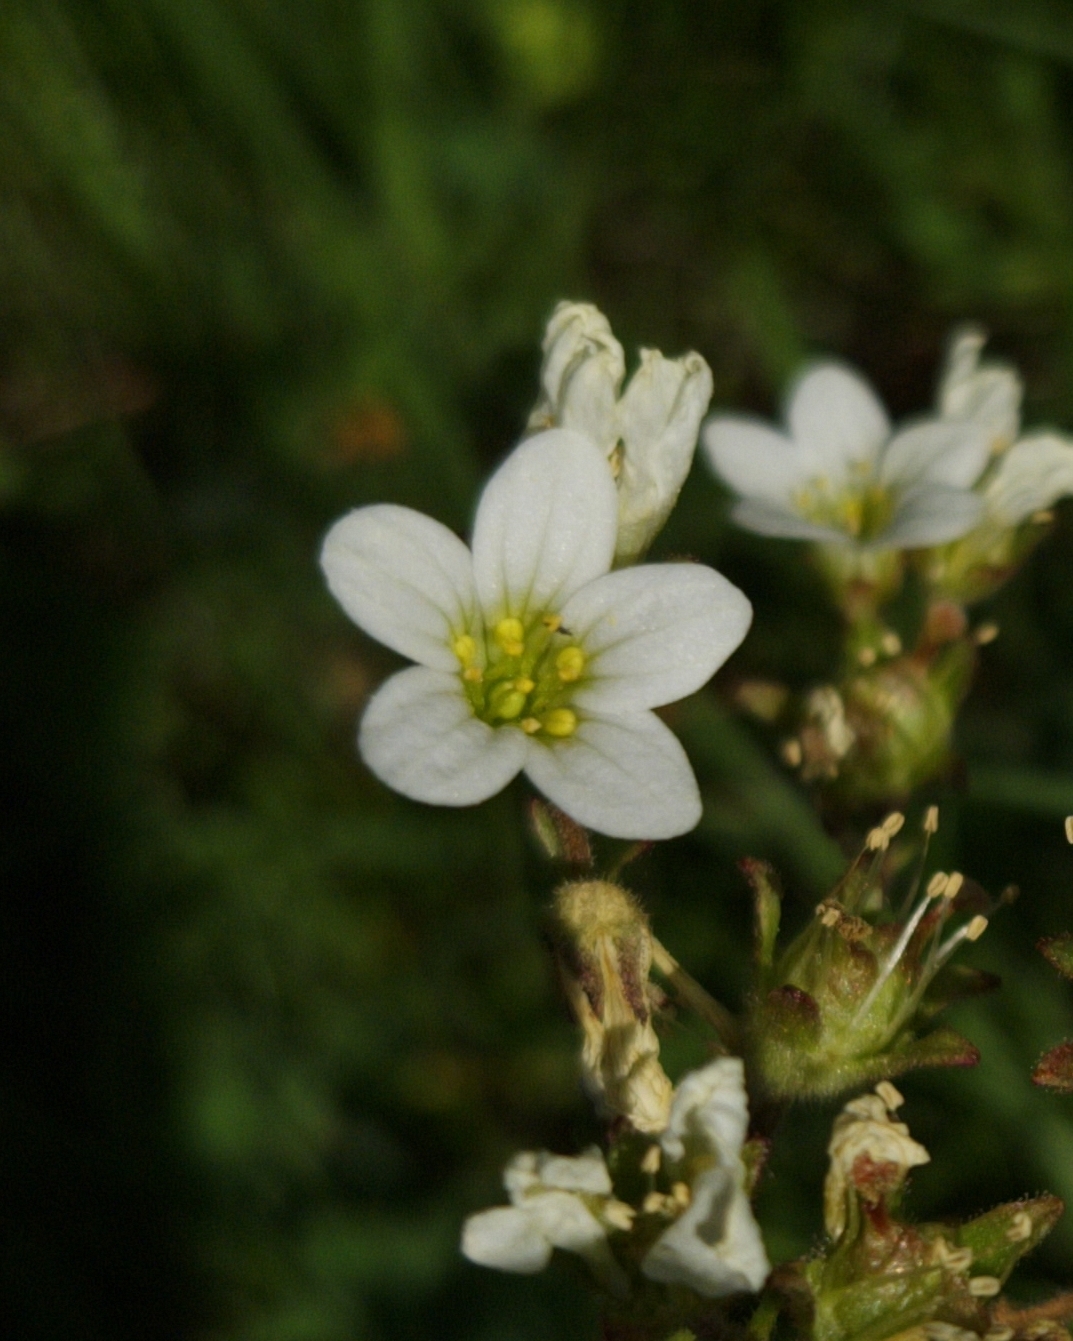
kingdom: Plantae
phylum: Tracheophyta
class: Magnoliopsida
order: Saxifragales
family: Saxifragaceae
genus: Saxifraga
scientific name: Saxifraga granulata
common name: Meadow saxifrage
